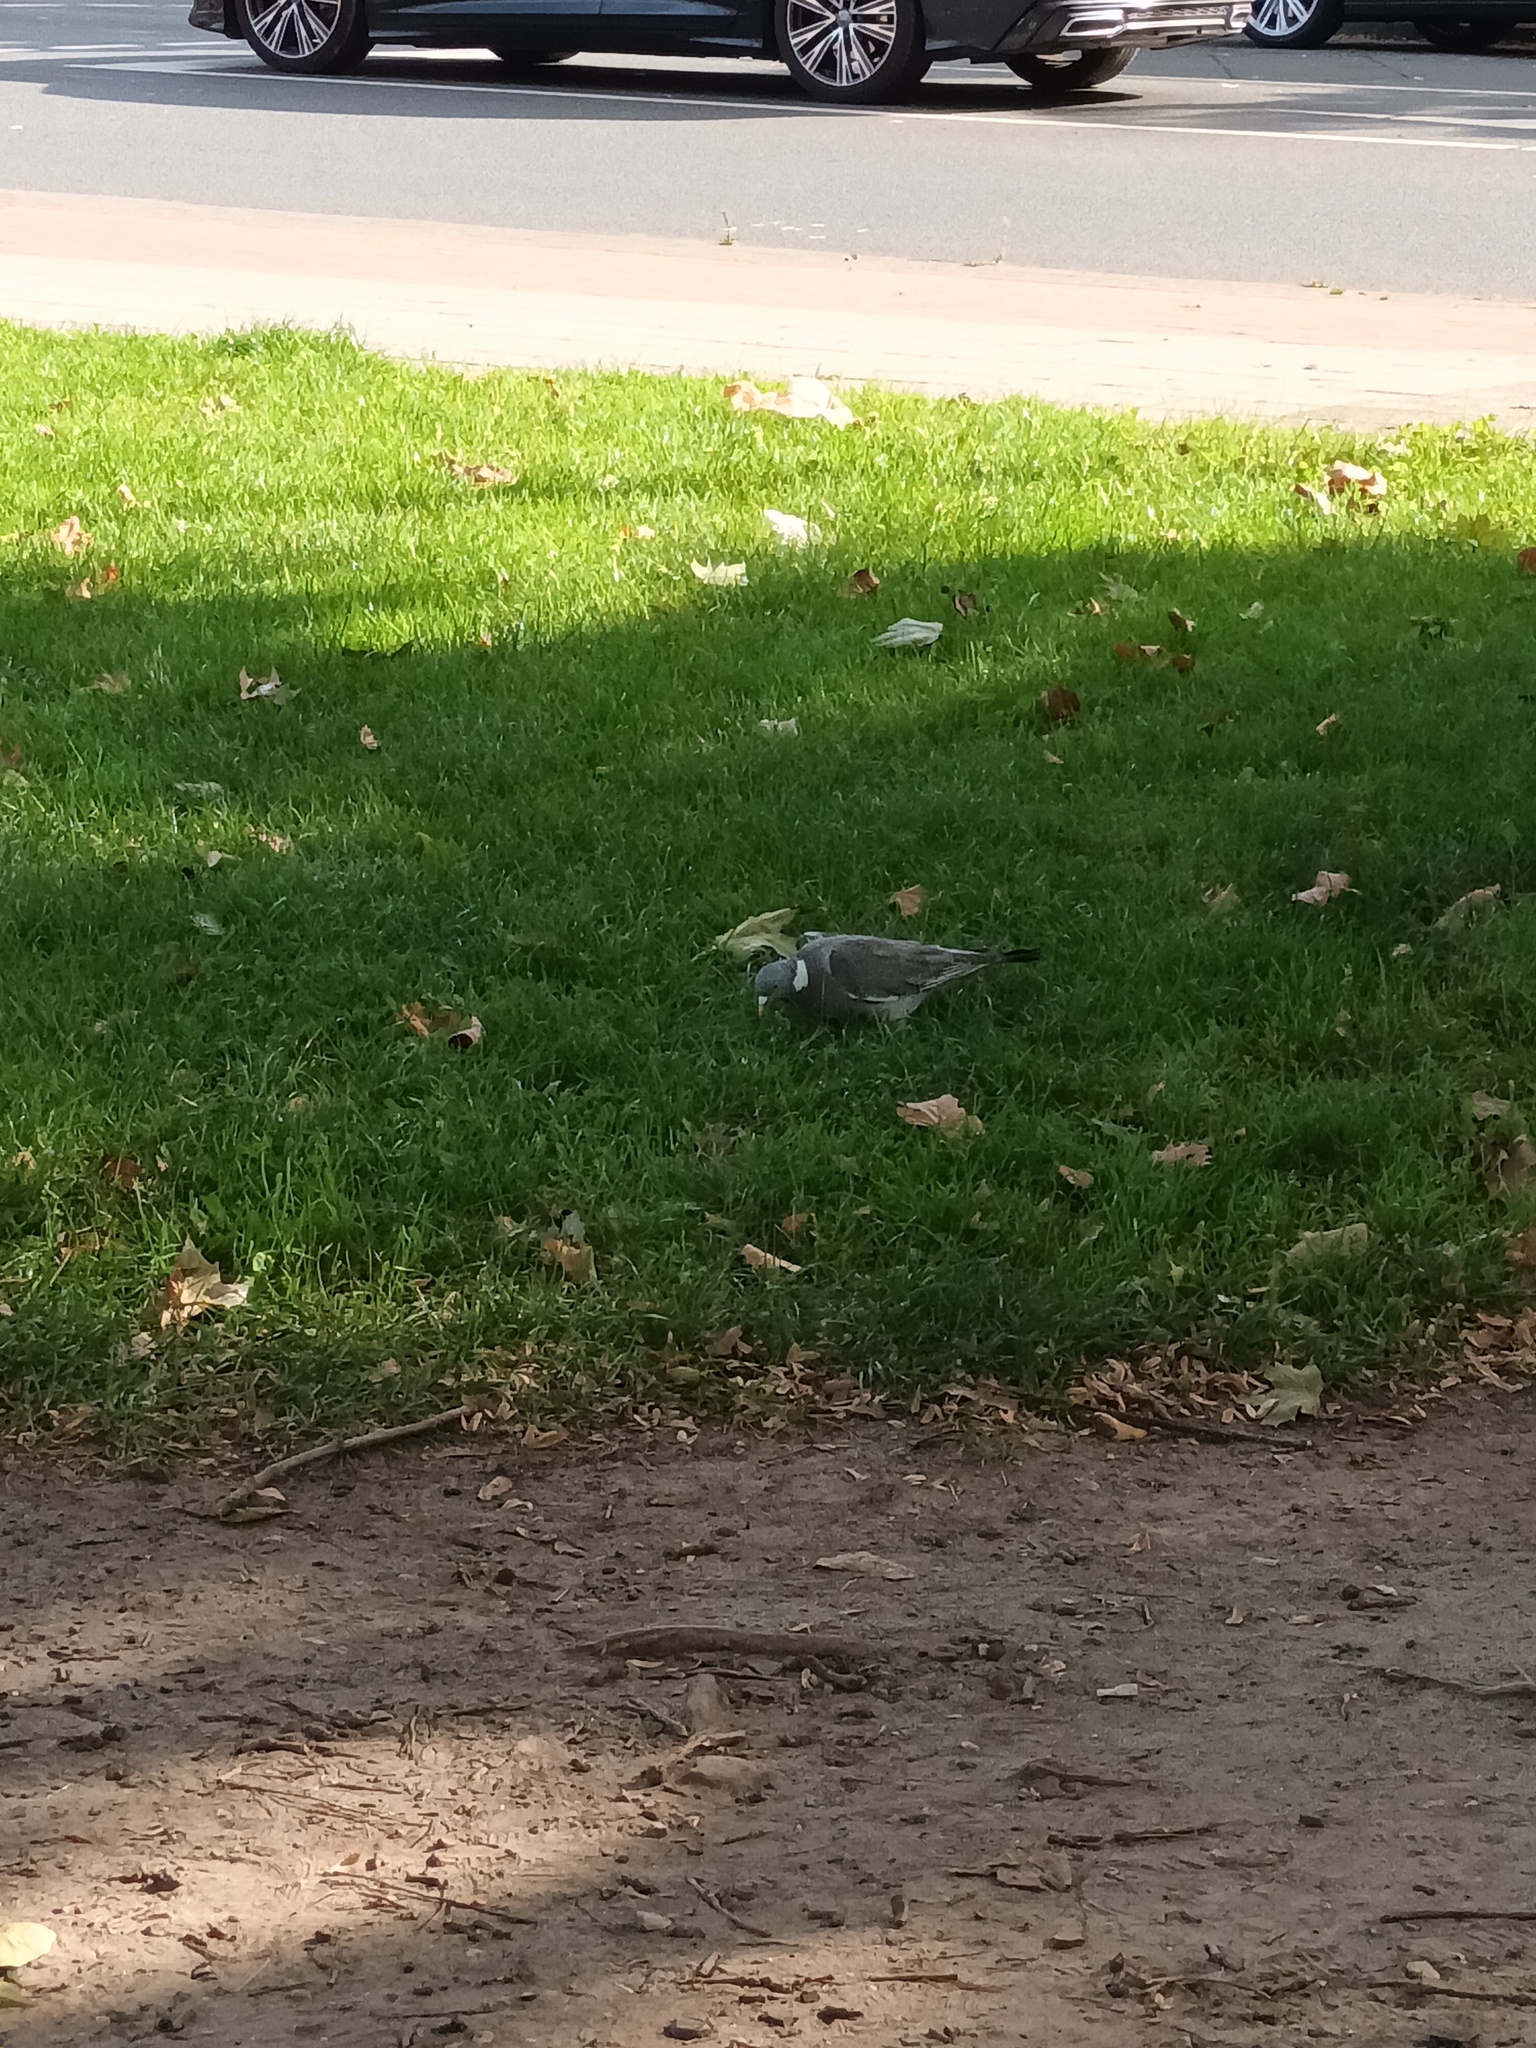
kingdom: Animalia
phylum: Chordata
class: Aves
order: Columbiformes
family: Columbidae
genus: Columba
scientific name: Columba palumbus
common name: Common wood pigeon
